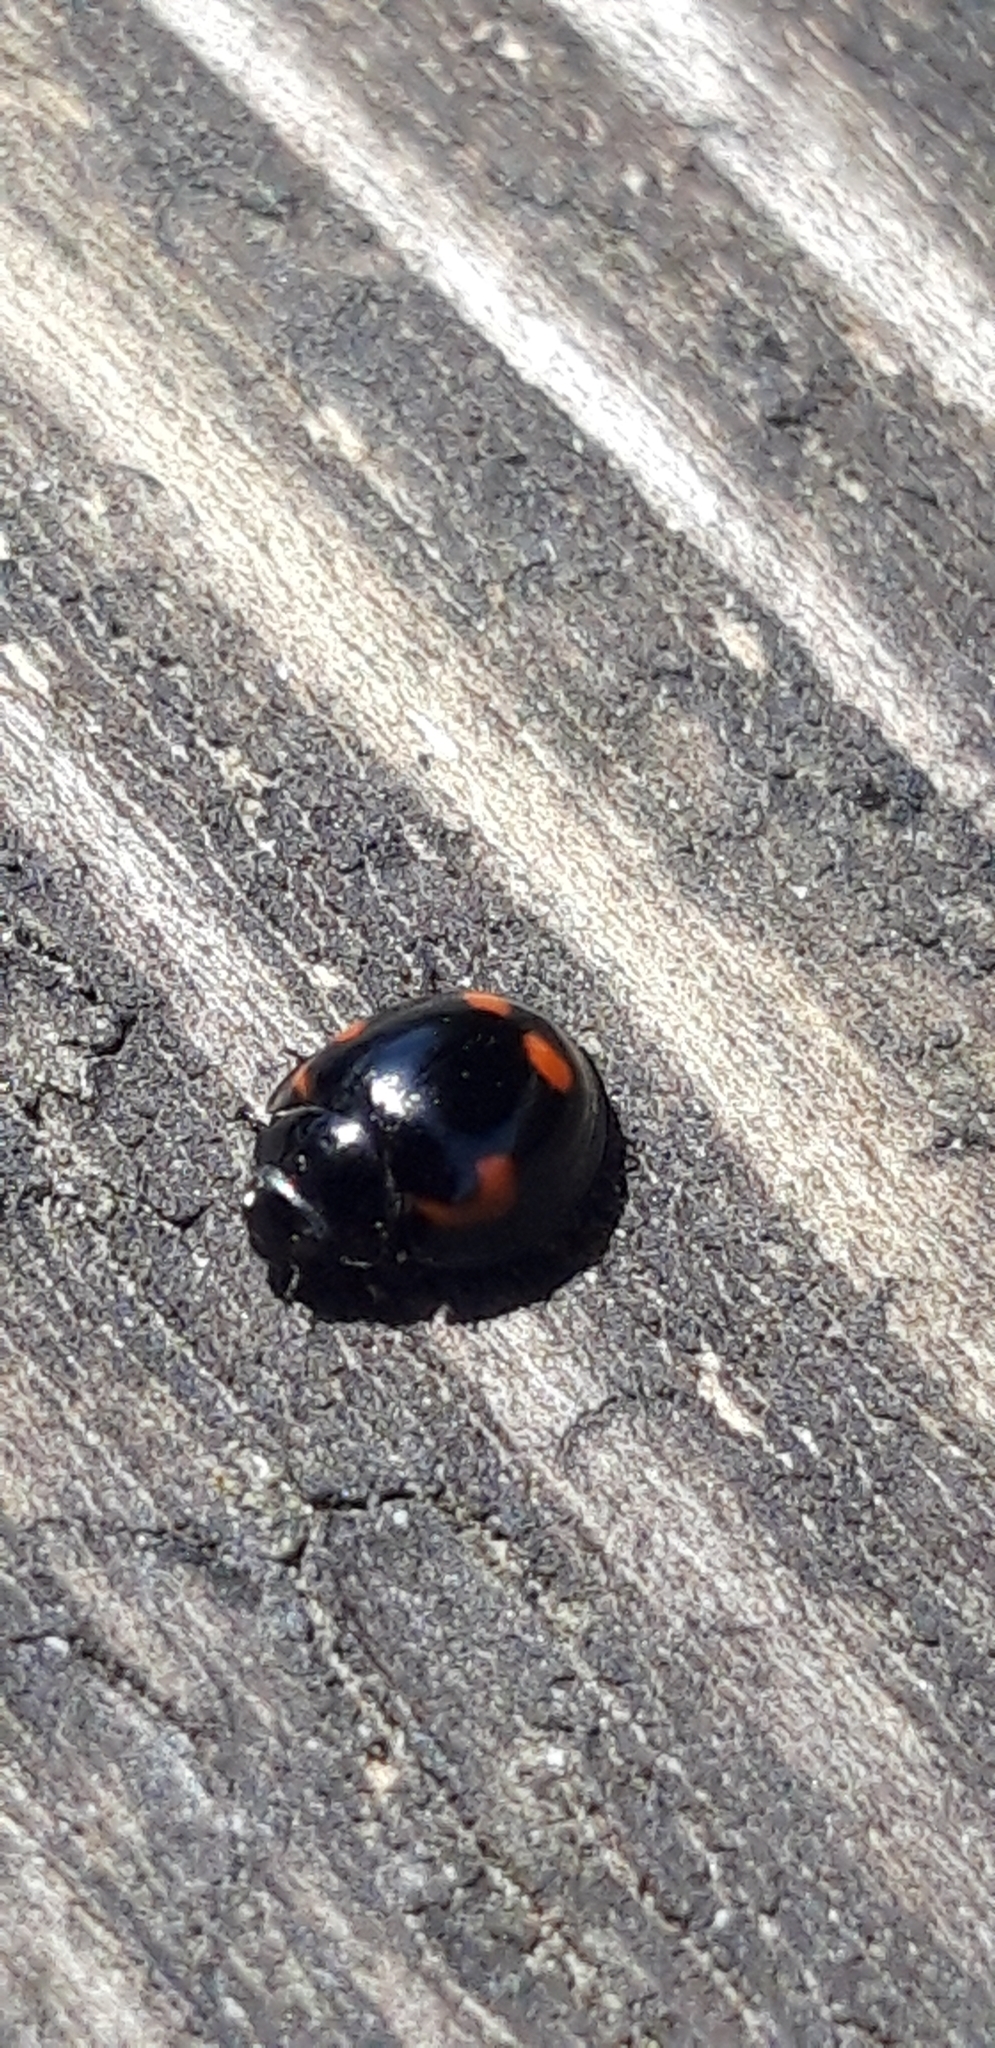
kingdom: Animalia
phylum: Arthropoda
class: Insecta
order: Coleoptera
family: Coccinellidae
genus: Brumus
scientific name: Brumus quadripustulatus
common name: Ladybird beetle
